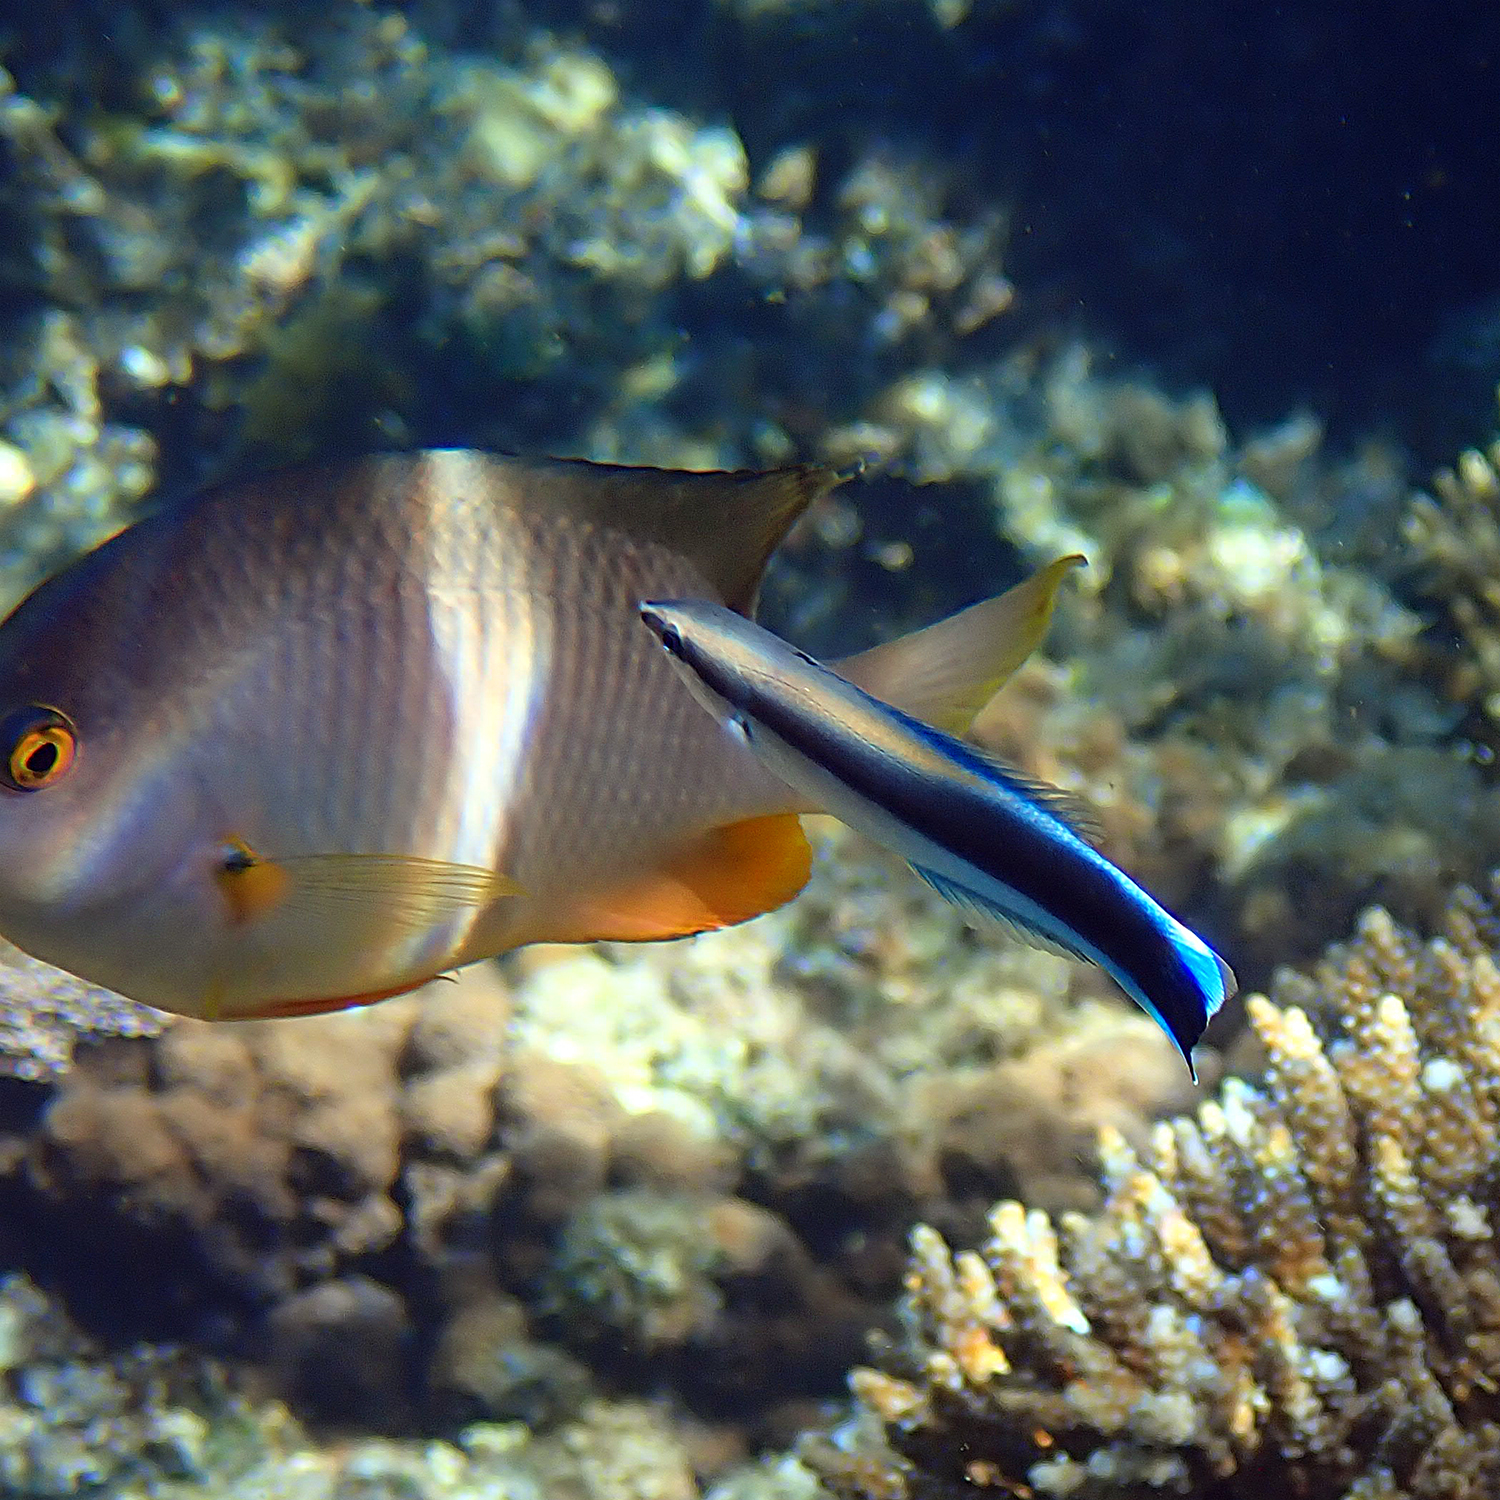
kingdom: Animalia
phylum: Chordata
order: Perciformes
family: Labridae
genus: Labroides
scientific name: Labroides dimidiatus
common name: Blue diesel wrasse
